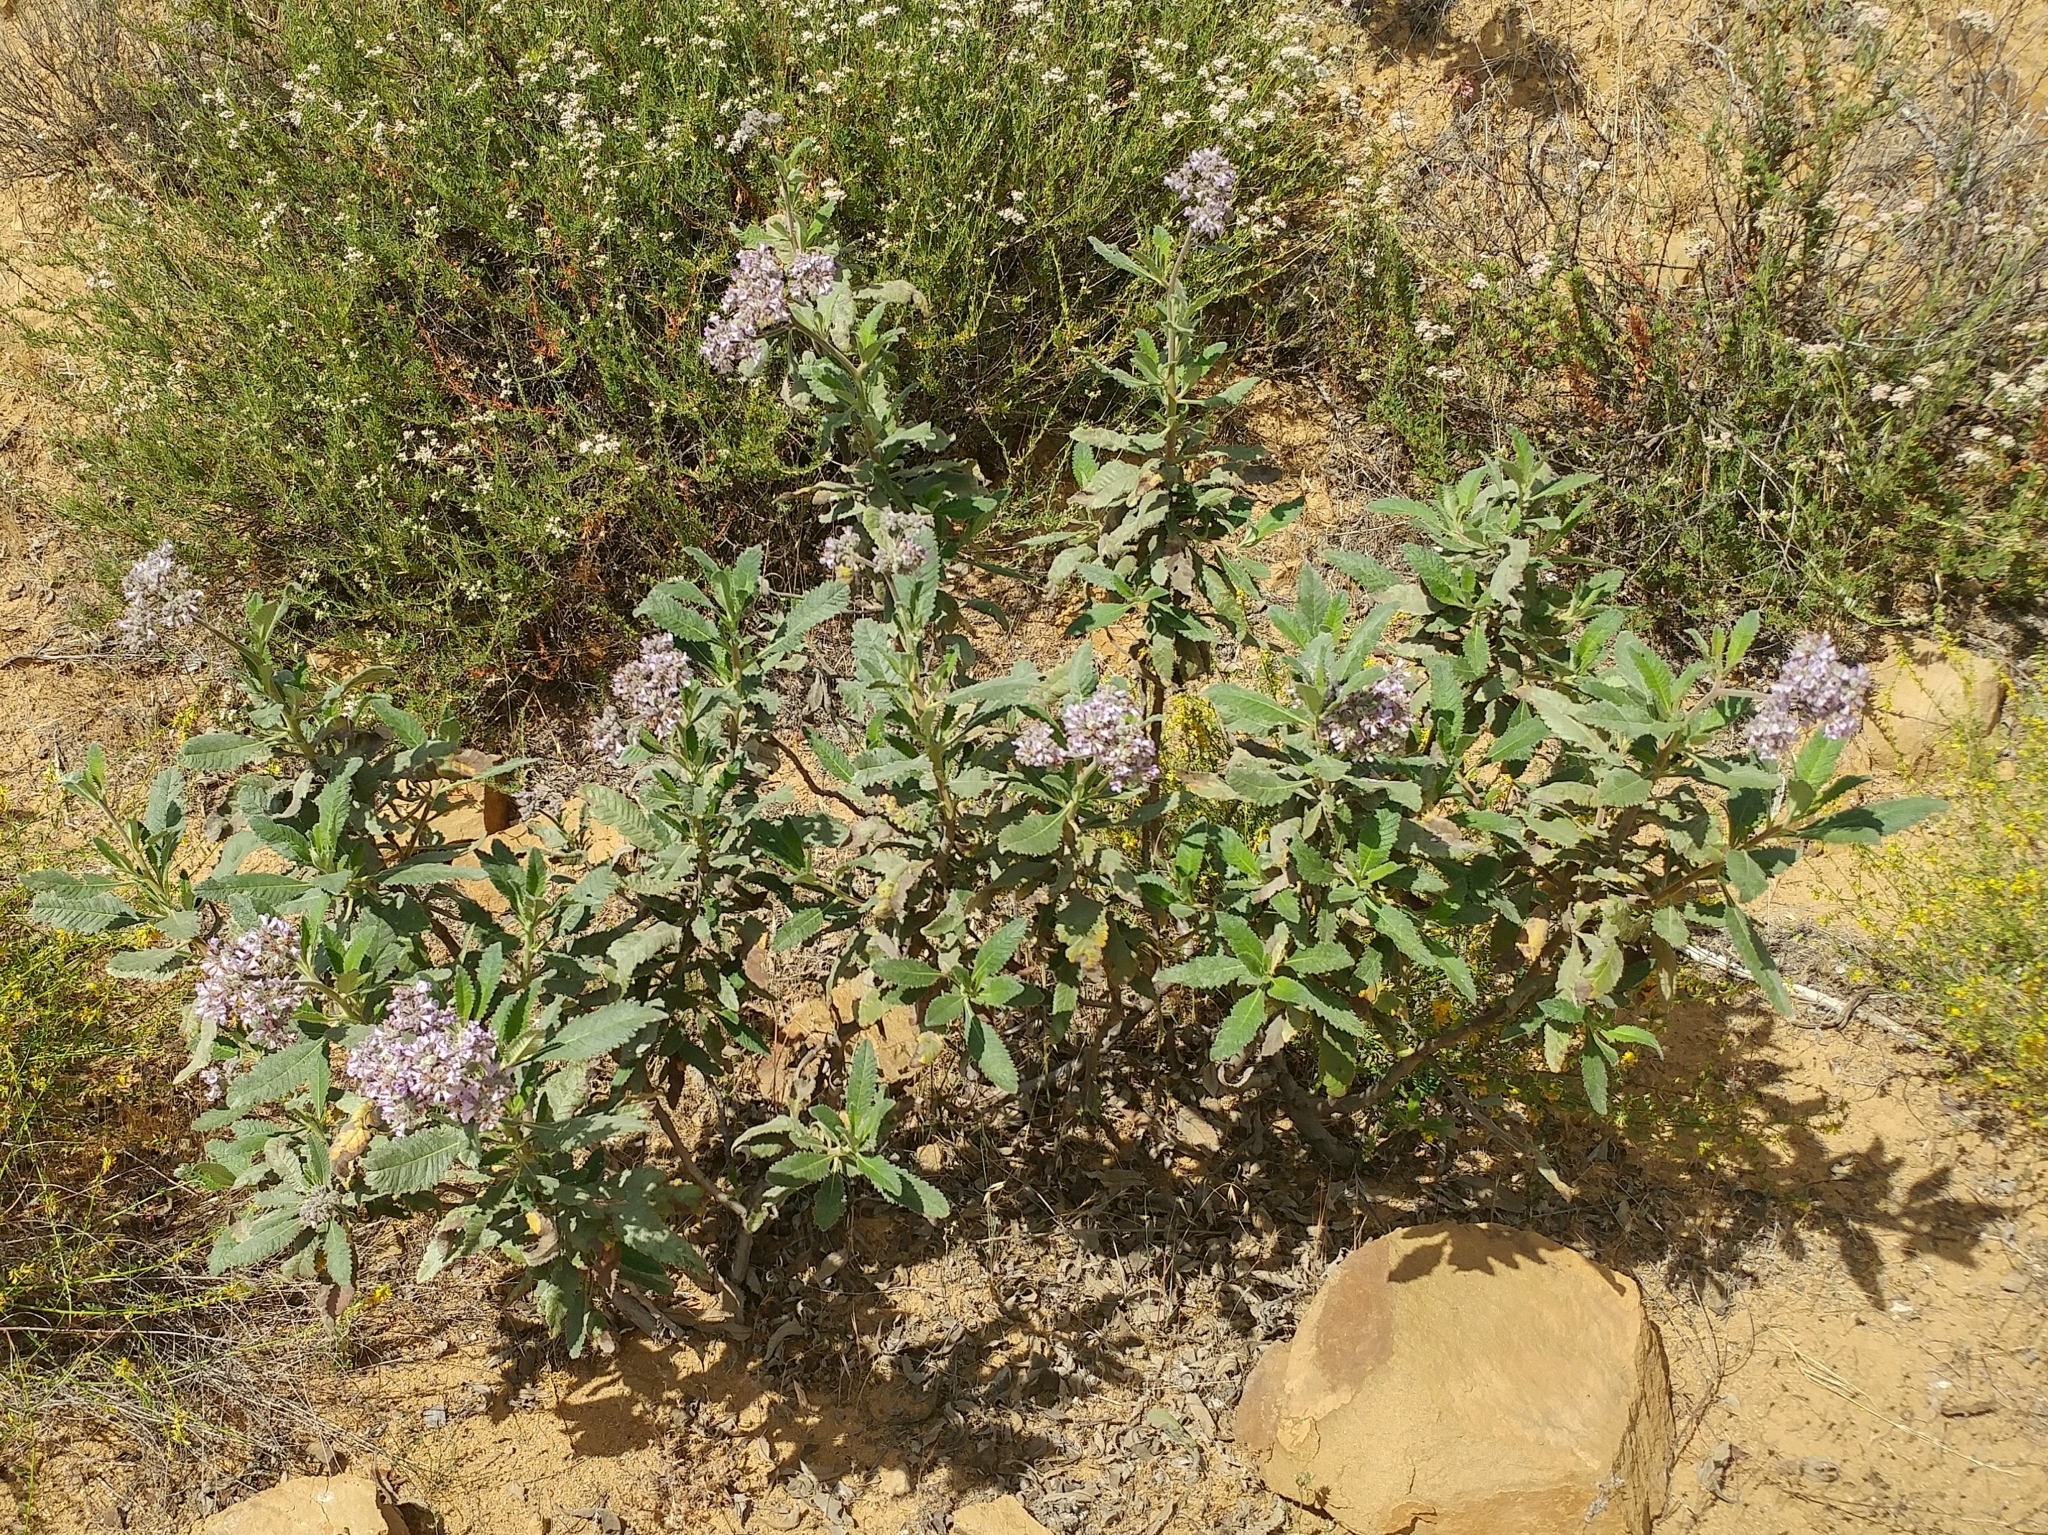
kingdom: Plantae
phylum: Tracheophyta
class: Magnoliopsida
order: Boraginales
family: Namaceae
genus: Eriodictyon
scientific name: Eriodictyon crassifolium
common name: Thick-leaf yerba-santa
